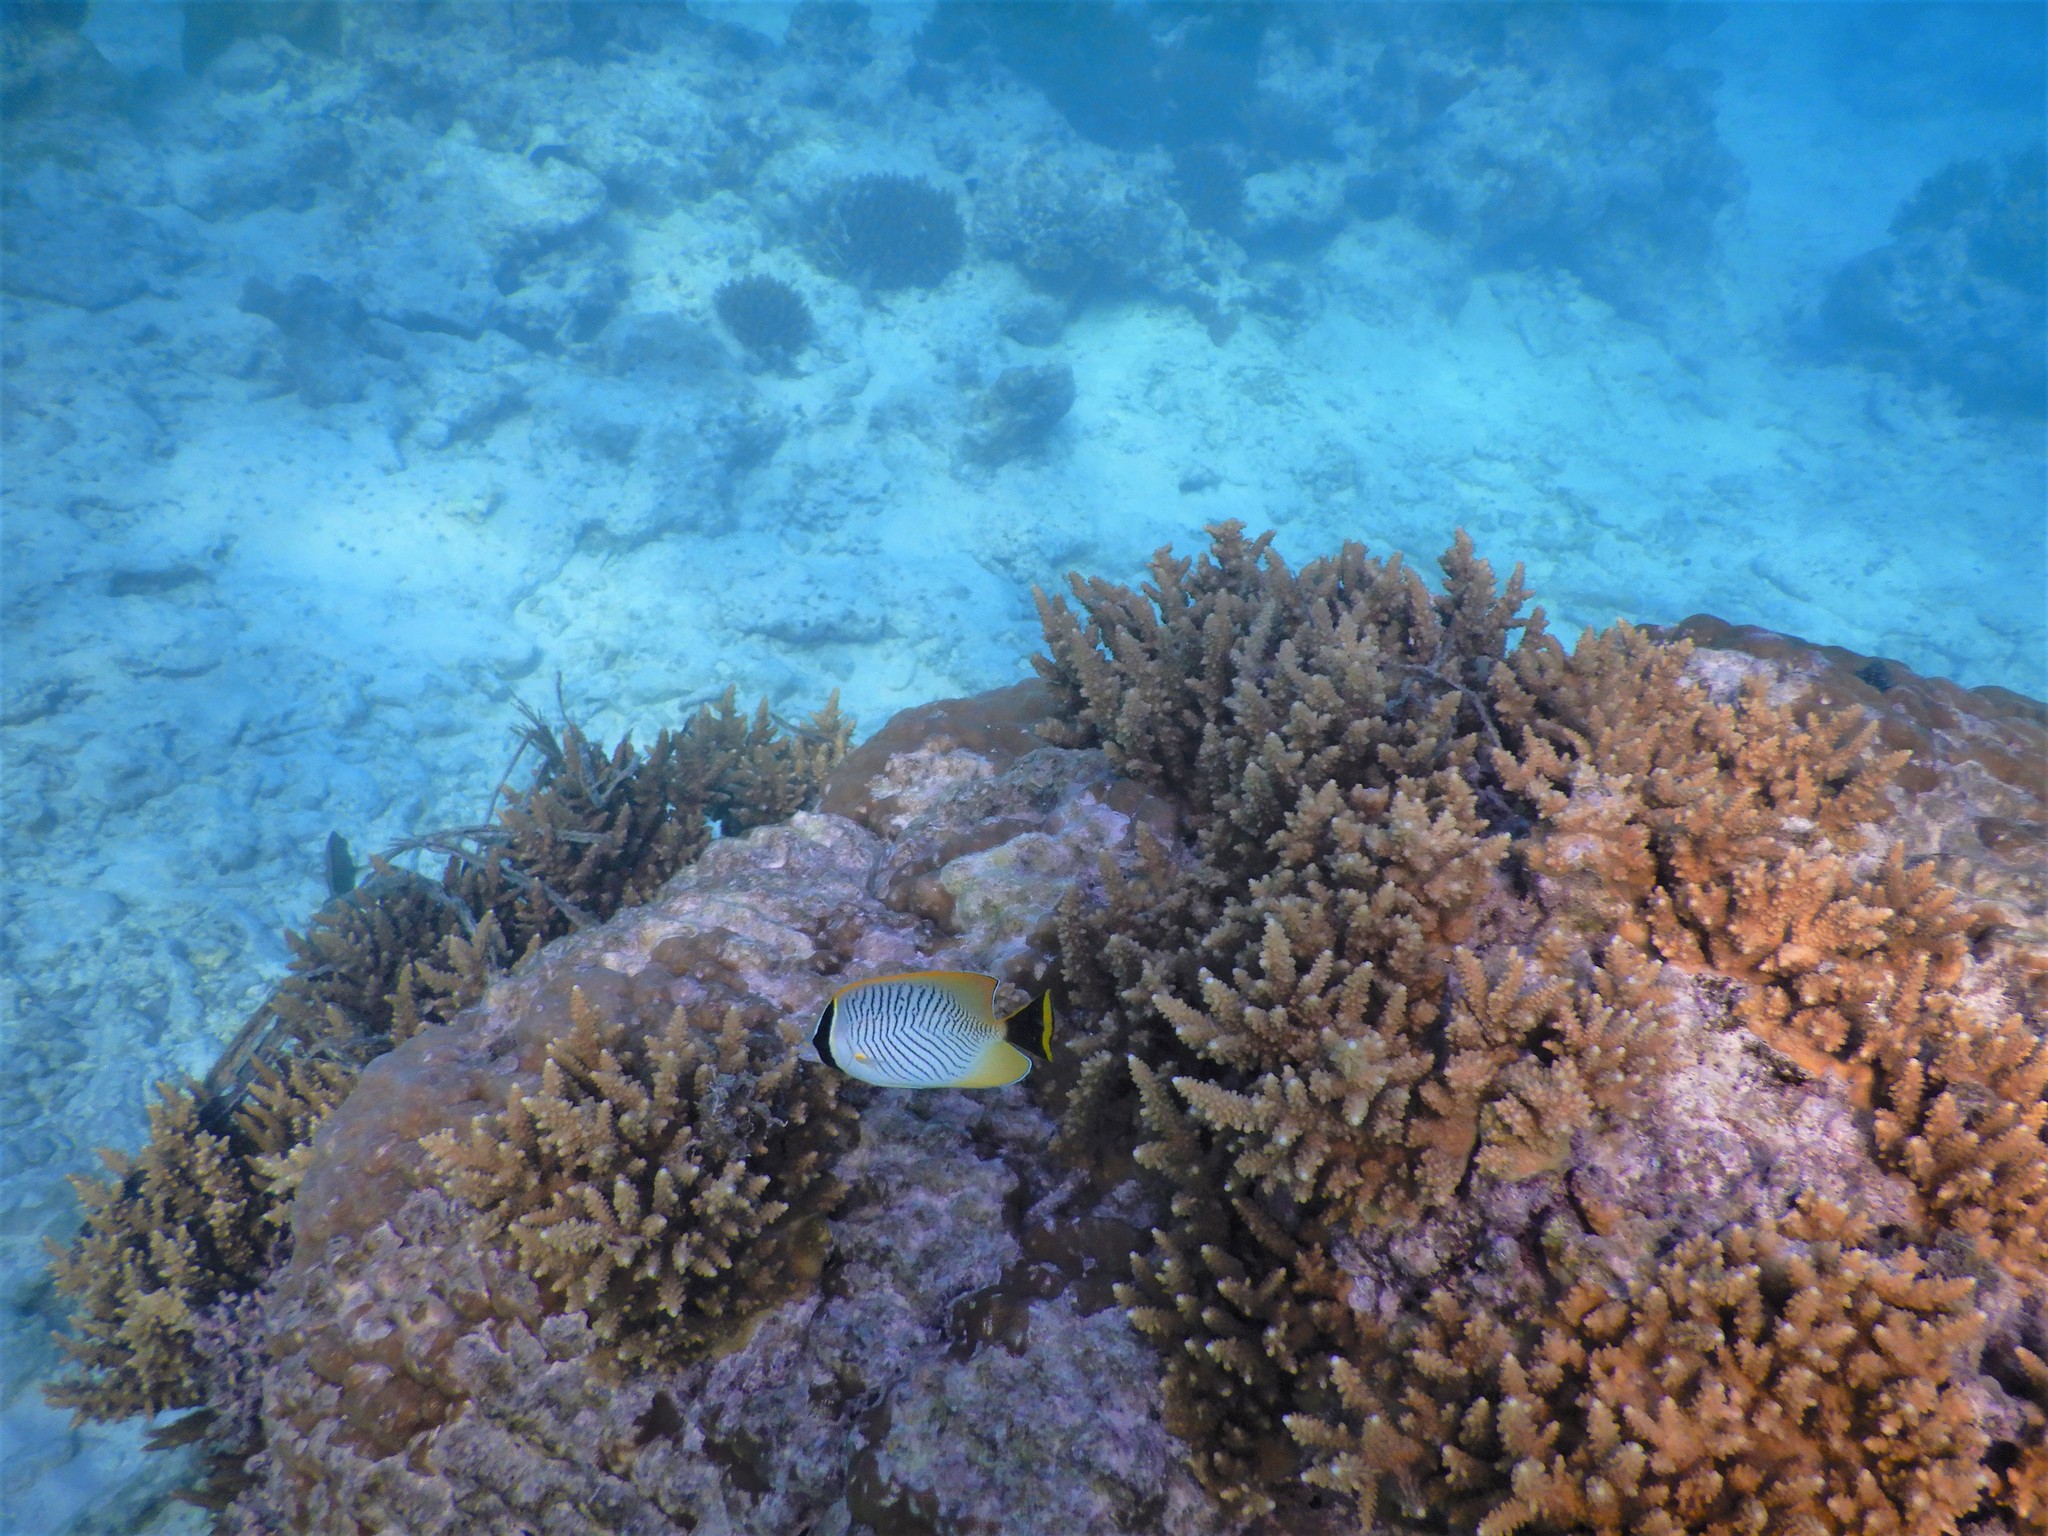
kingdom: Animalia
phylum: Chordata
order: Perciformes
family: Chaetodontidae
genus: Chaetodon
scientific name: Chaetodon trifascialis
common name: Chevroned butterflyfish
